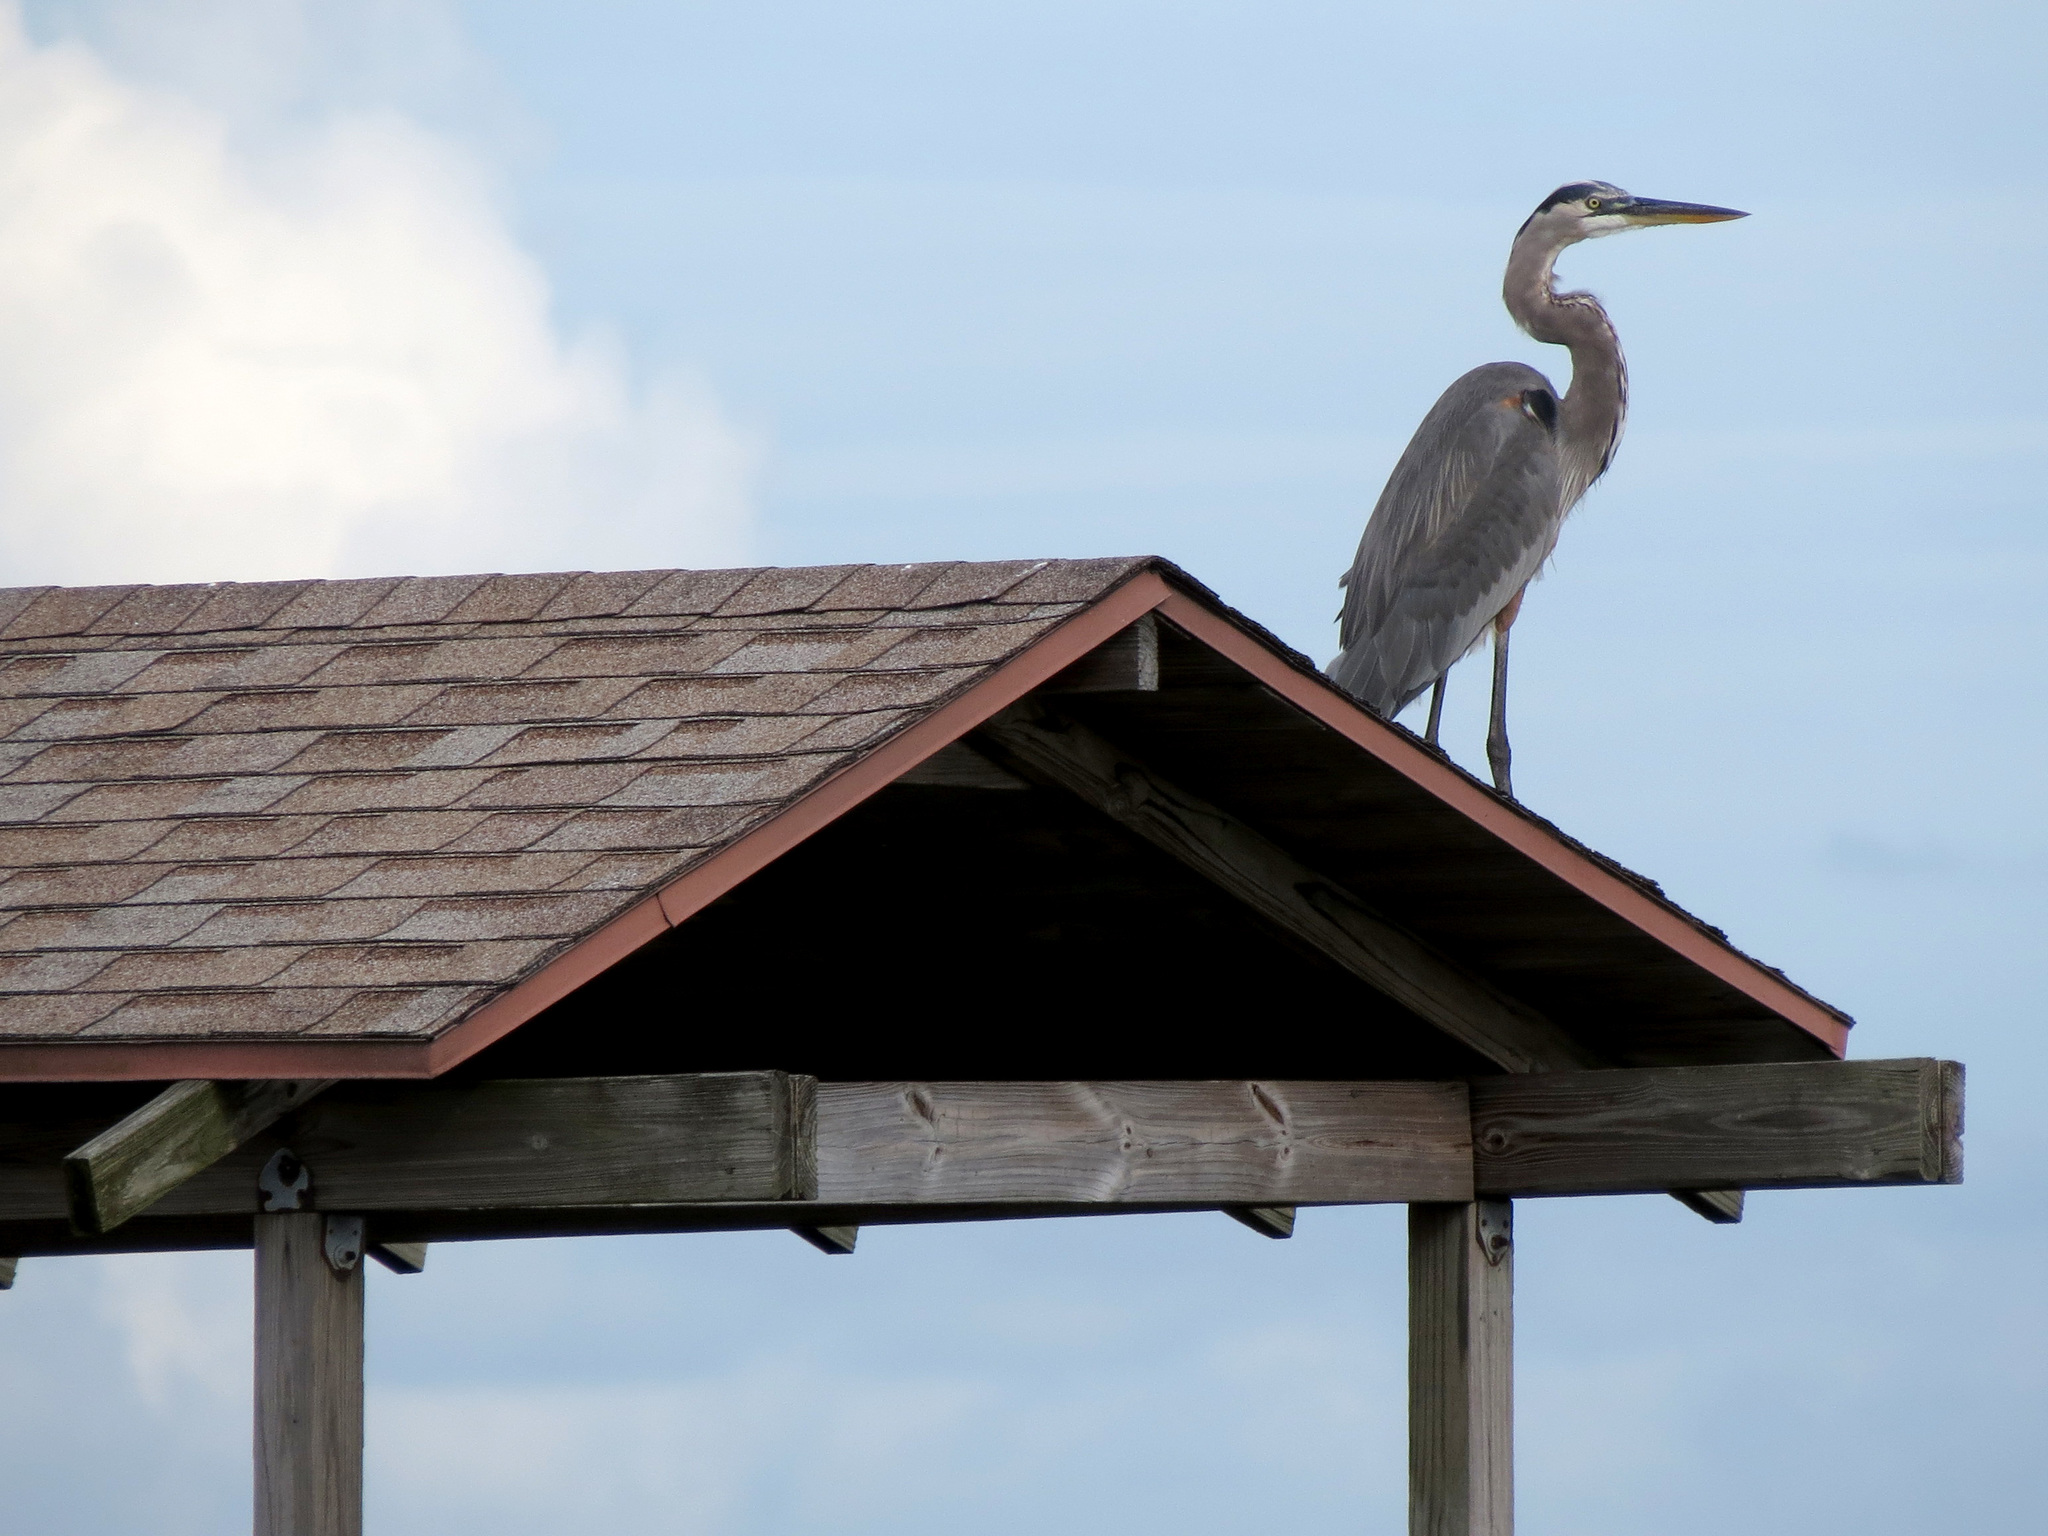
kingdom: Animalia
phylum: Chordata
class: Aves
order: Pelecaniformes
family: Ardeidae
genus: Ardea
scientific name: Ardea herodias
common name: Great blue heron
